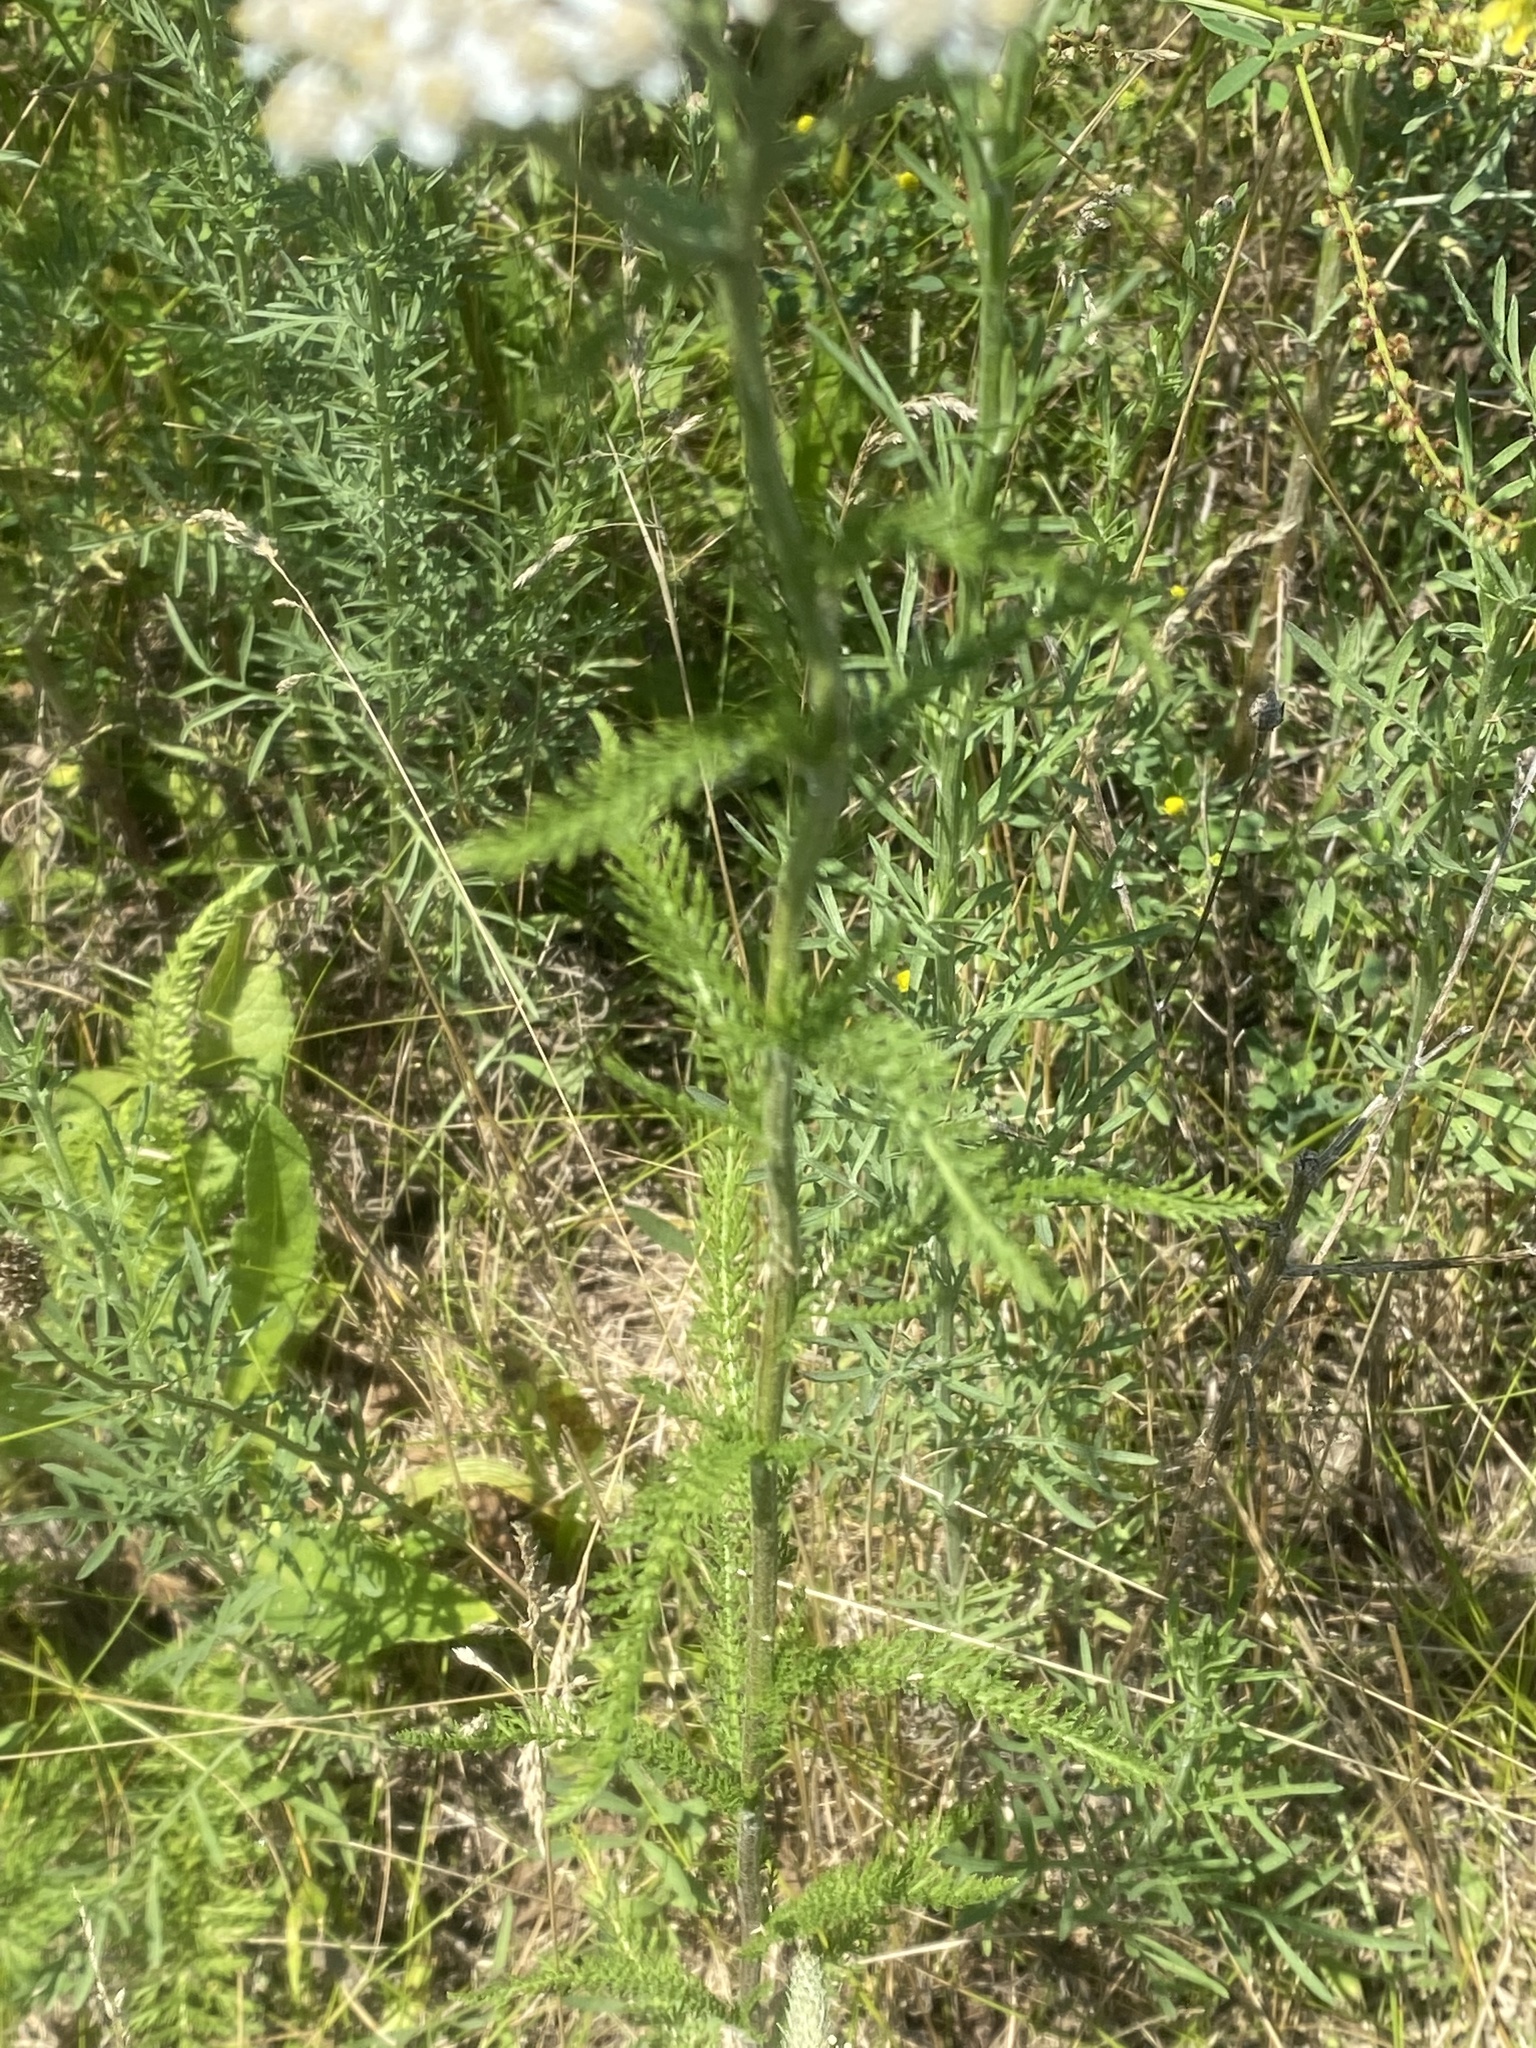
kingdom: Plantae
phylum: Tracheophyta
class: Magnoliopsida
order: Asterales
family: Asteraceae
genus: Achillea
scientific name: Achillea millefolium
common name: Yarrow
